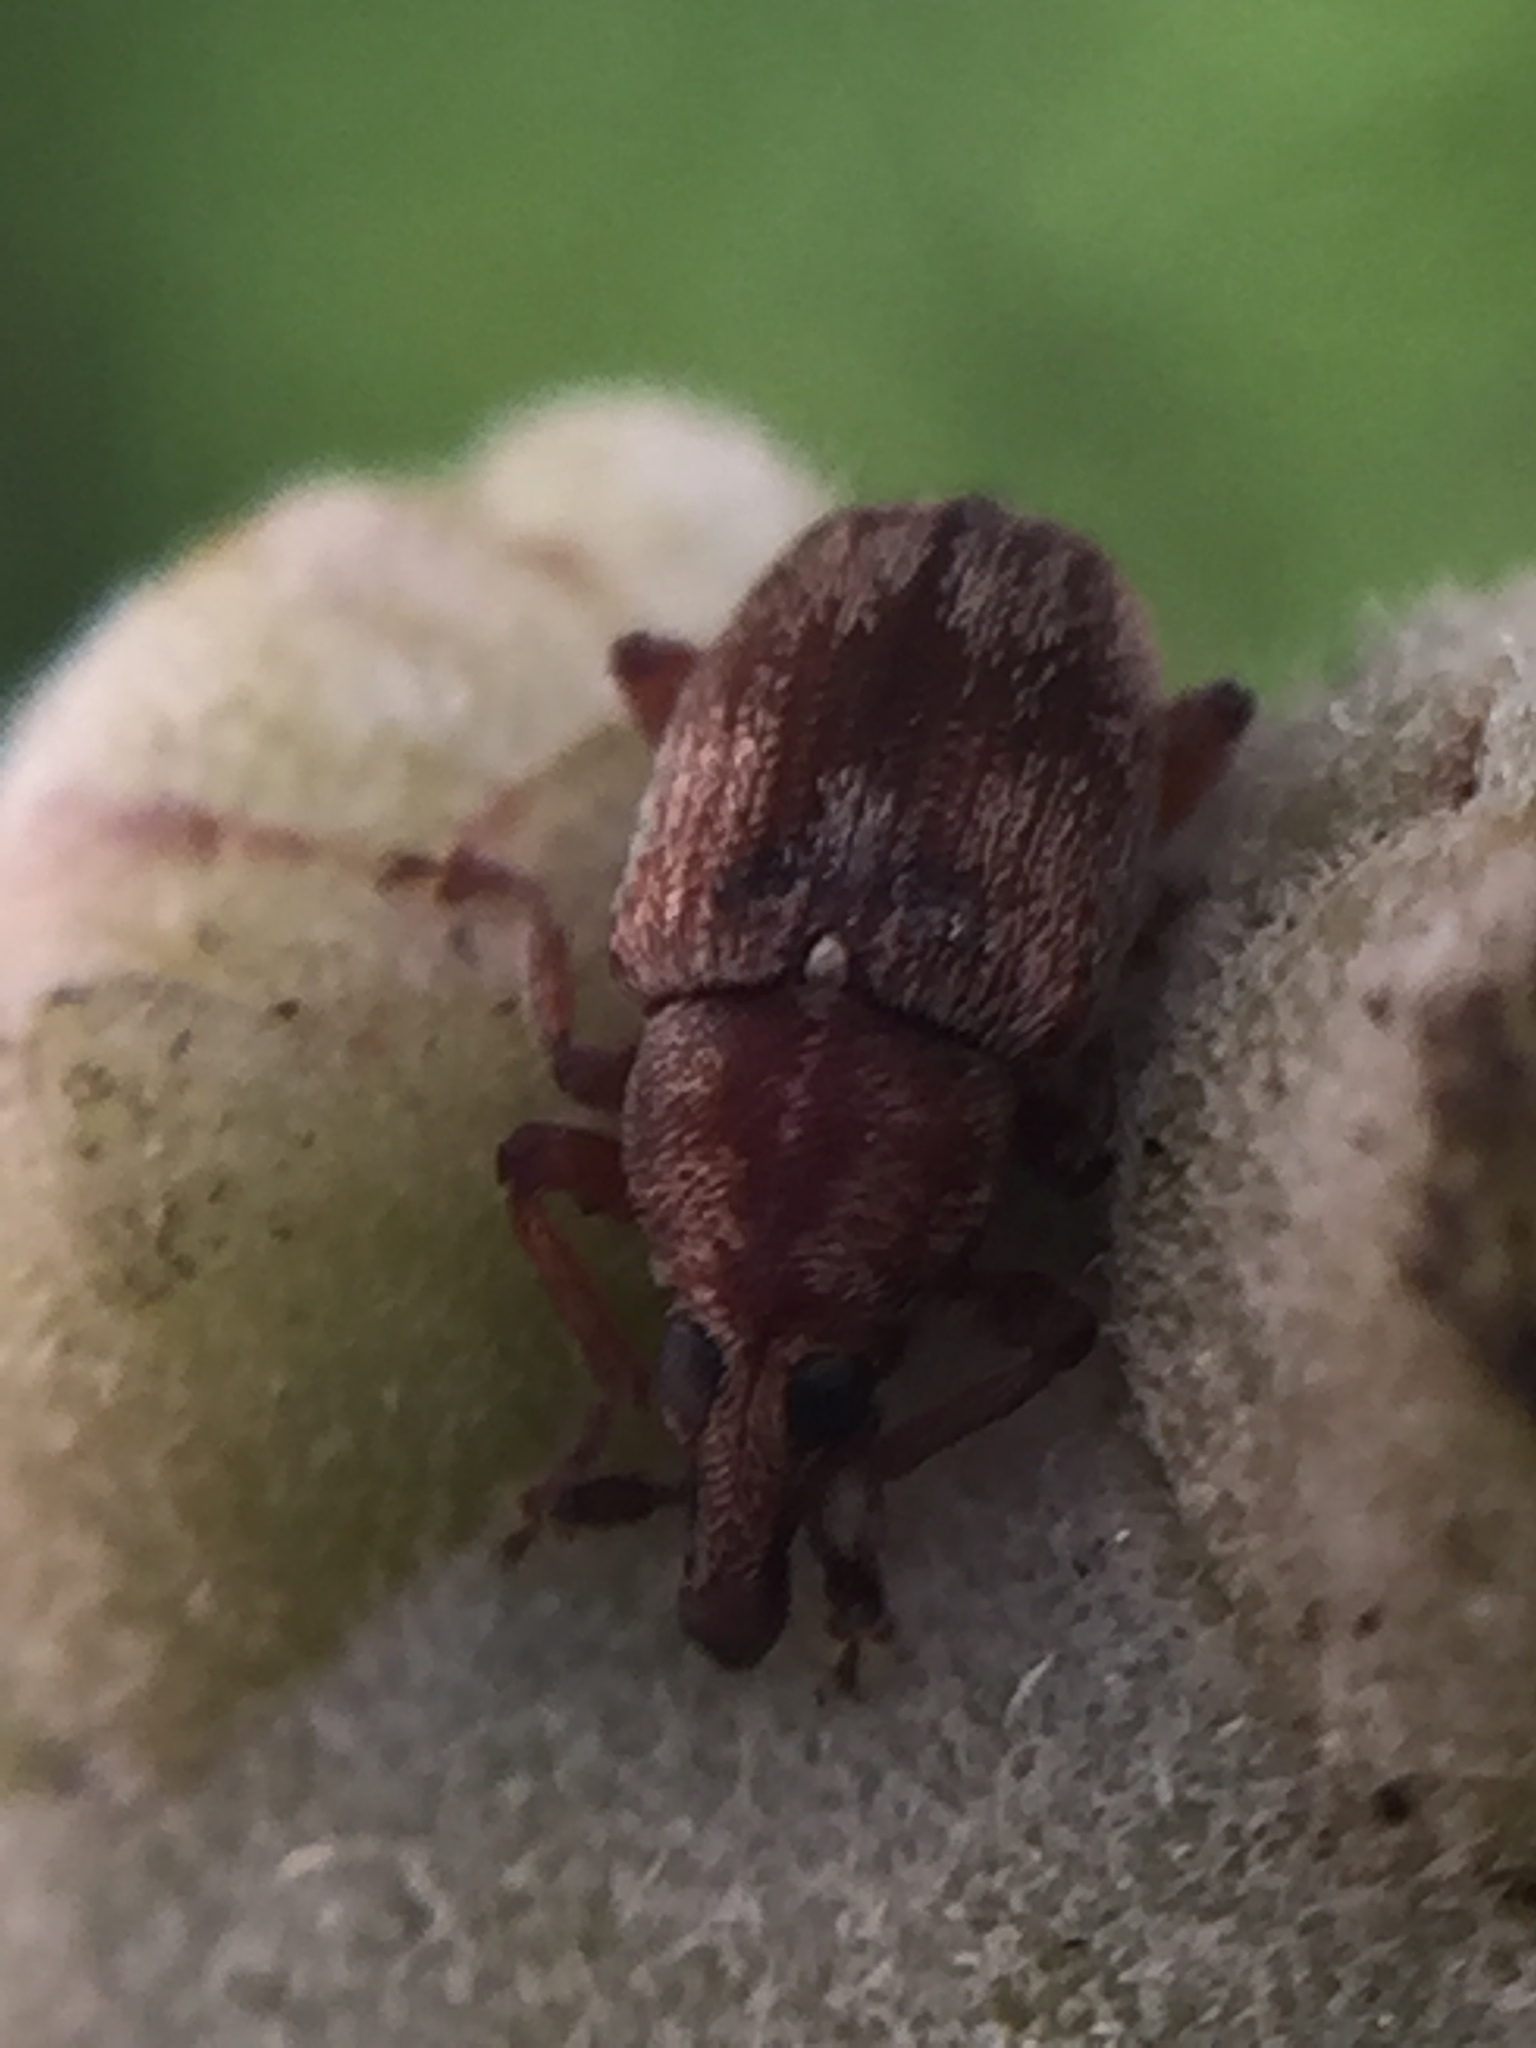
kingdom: Animalia
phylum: Arthropoda
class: Insecta
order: Coleoptera
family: Curculionidae
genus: Neomycta
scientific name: Neomycta rubida
